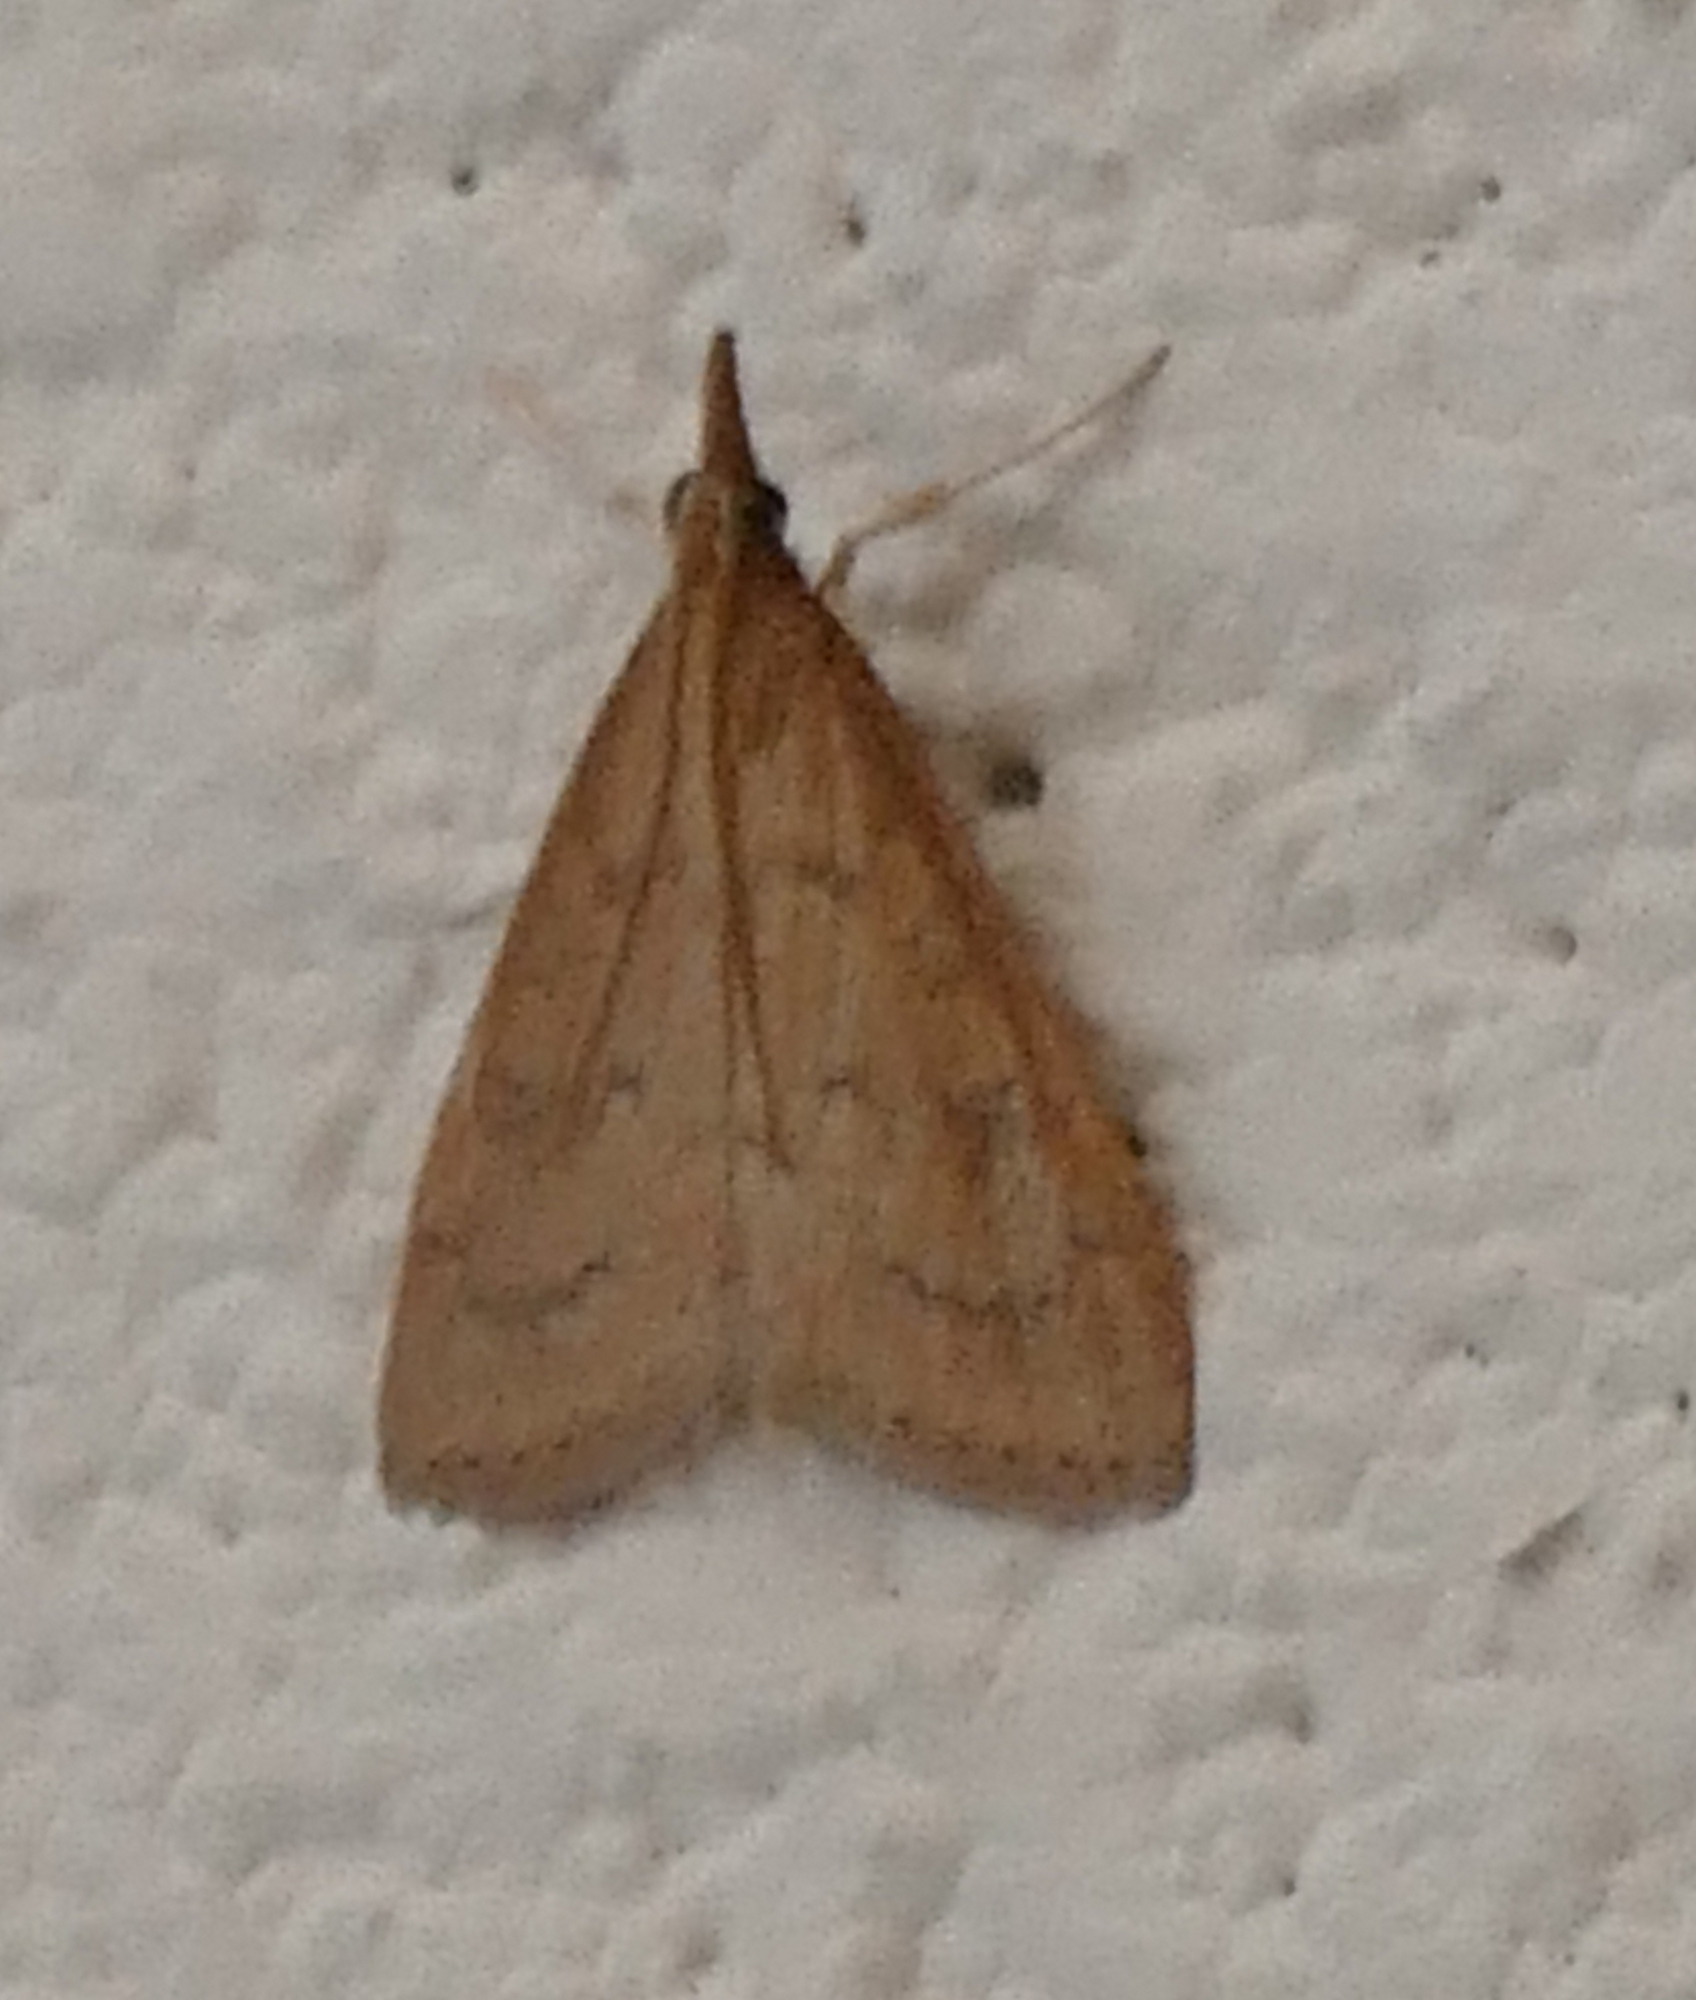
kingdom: Animalia
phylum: Arthropoda
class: Insecta
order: Lepidoptera
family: Crambidae
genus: Udea
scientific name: Udea rubigalis
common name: Celery leaftier moth
